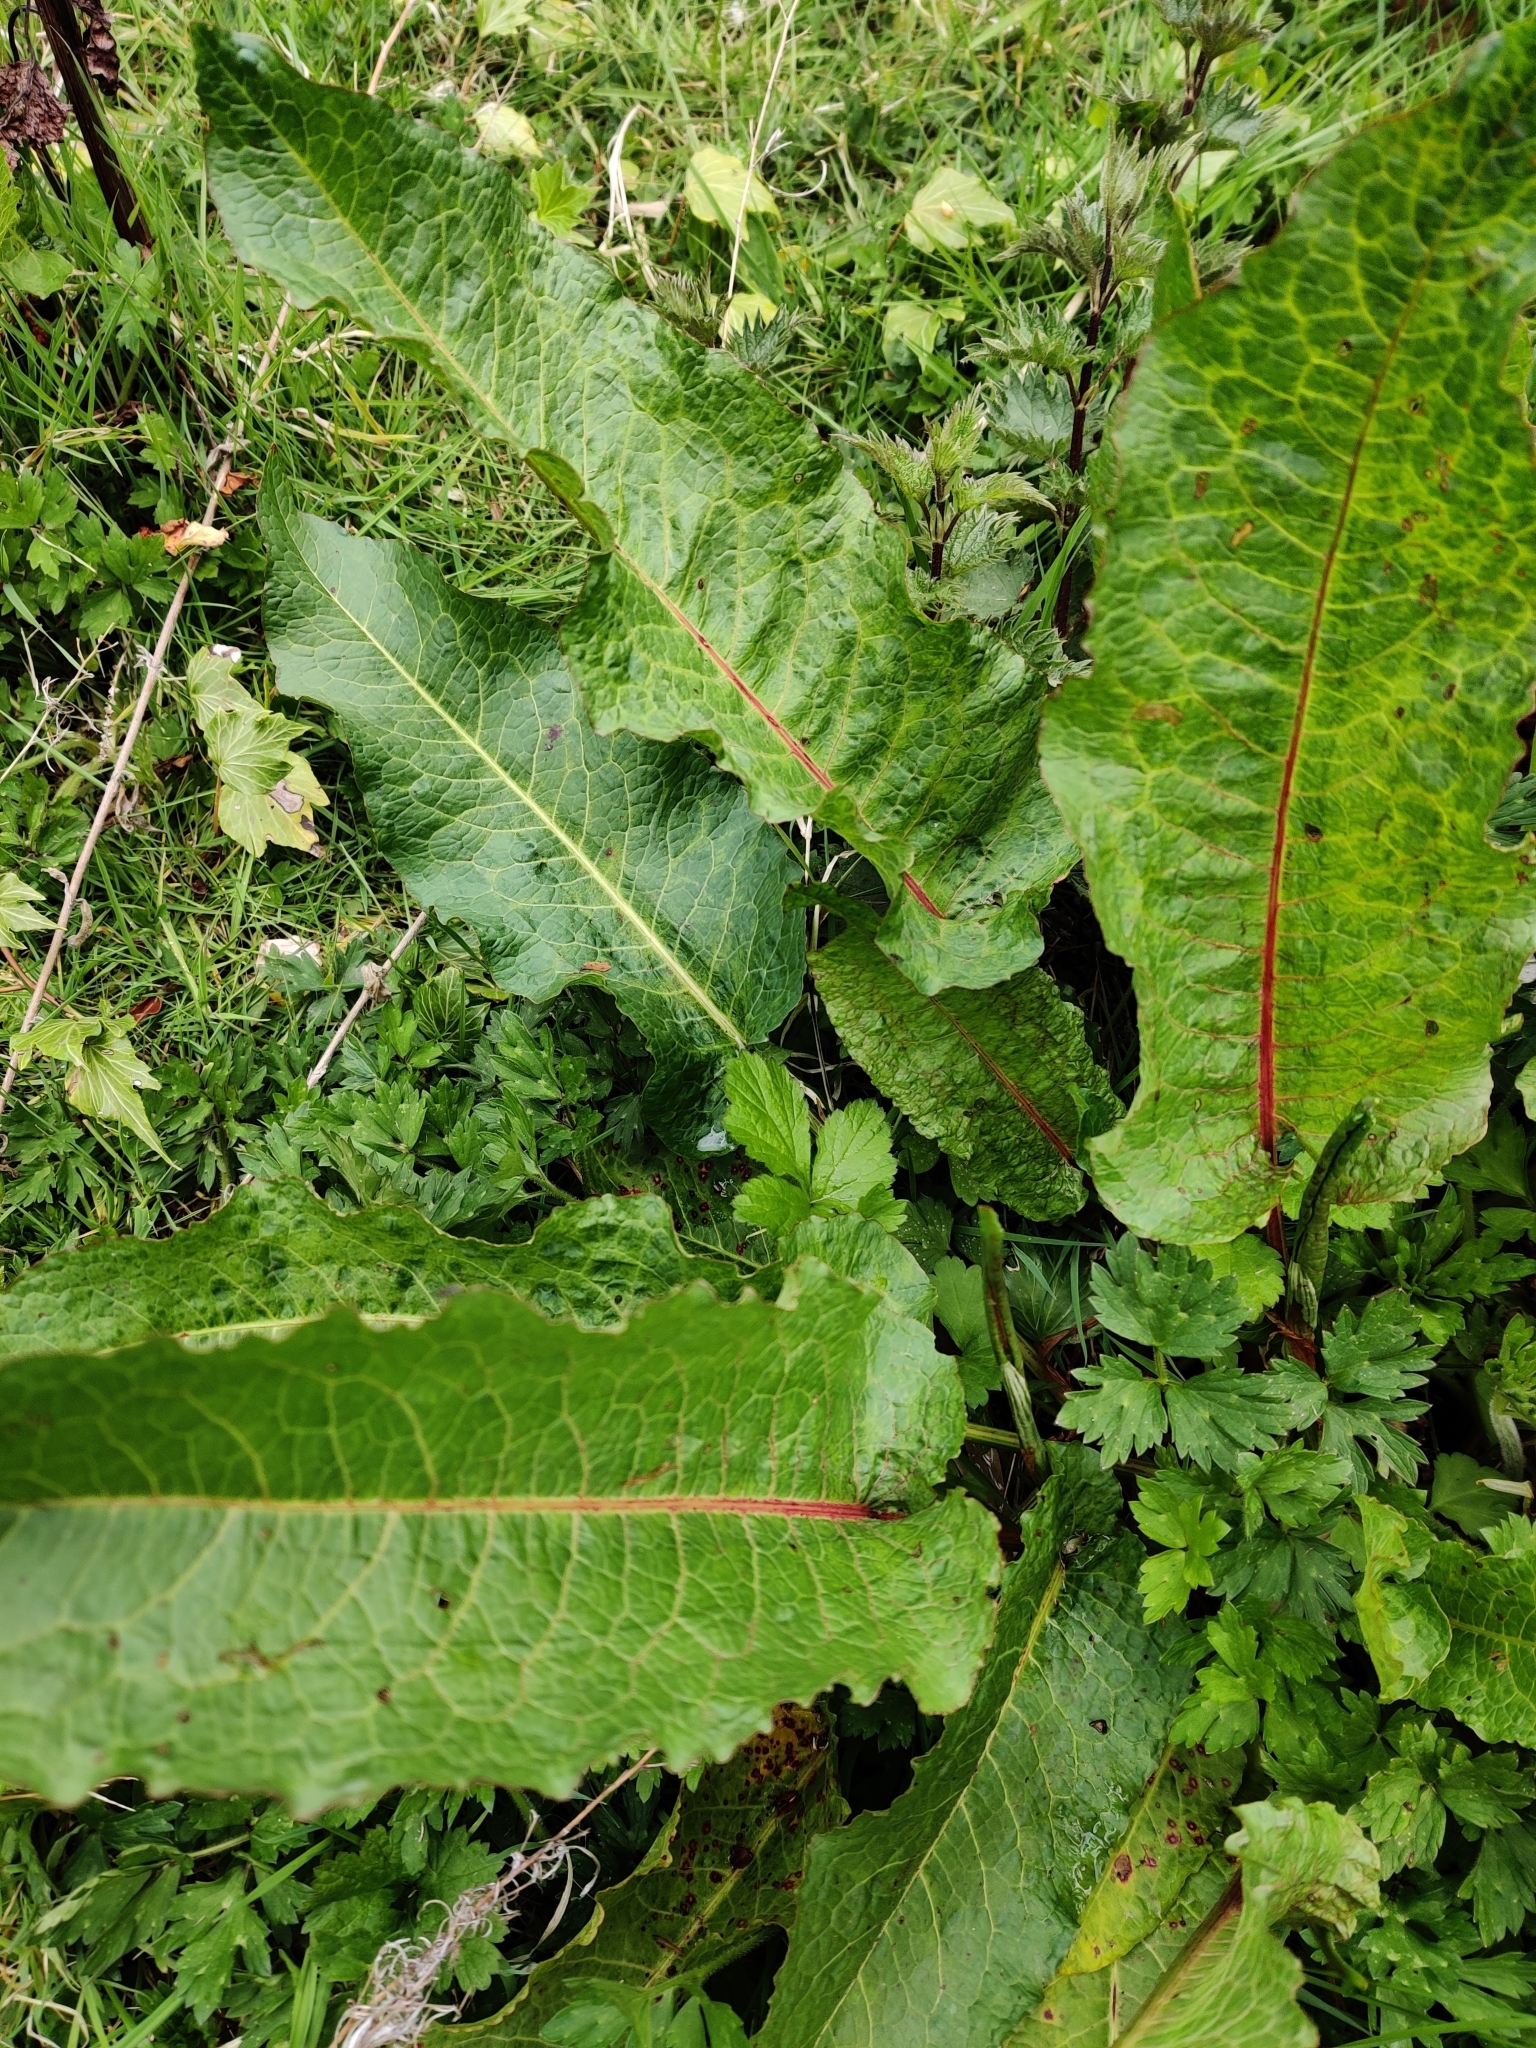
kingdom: Plantae
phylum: Tracheophyta
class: Magnoliopsida
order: Caryophyllales
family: Polygonaceae
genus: Rumex
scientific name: Rumex obtusifolius
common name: Bitter dock
